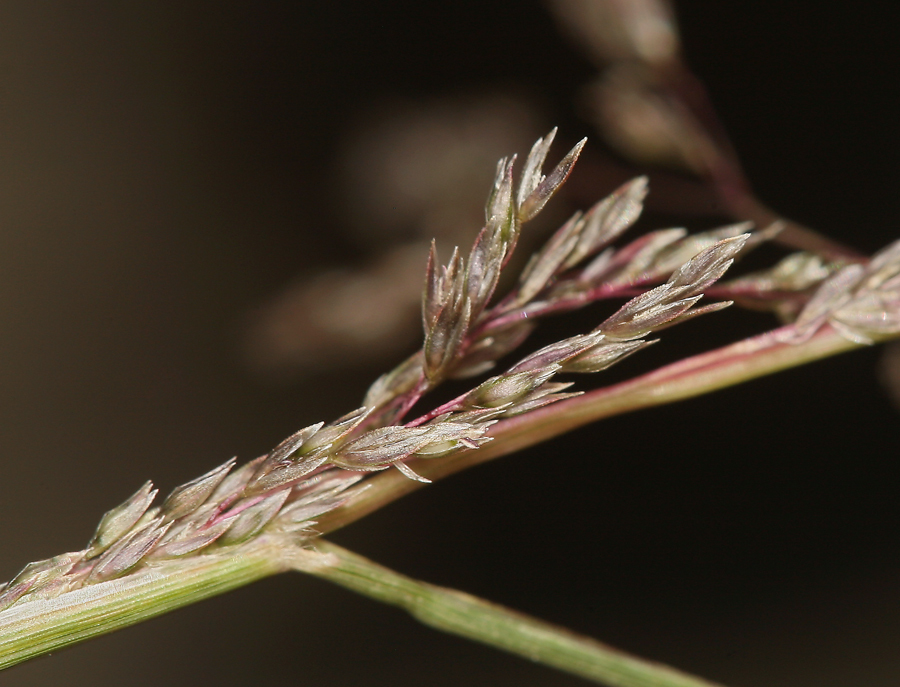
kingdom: Plantae
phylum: Tracheophyta
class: Liliopsida
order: Poales
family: Poaceae
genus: Sporobolus
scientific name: Sporobolus cryptandrus
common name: Sand dropseed
